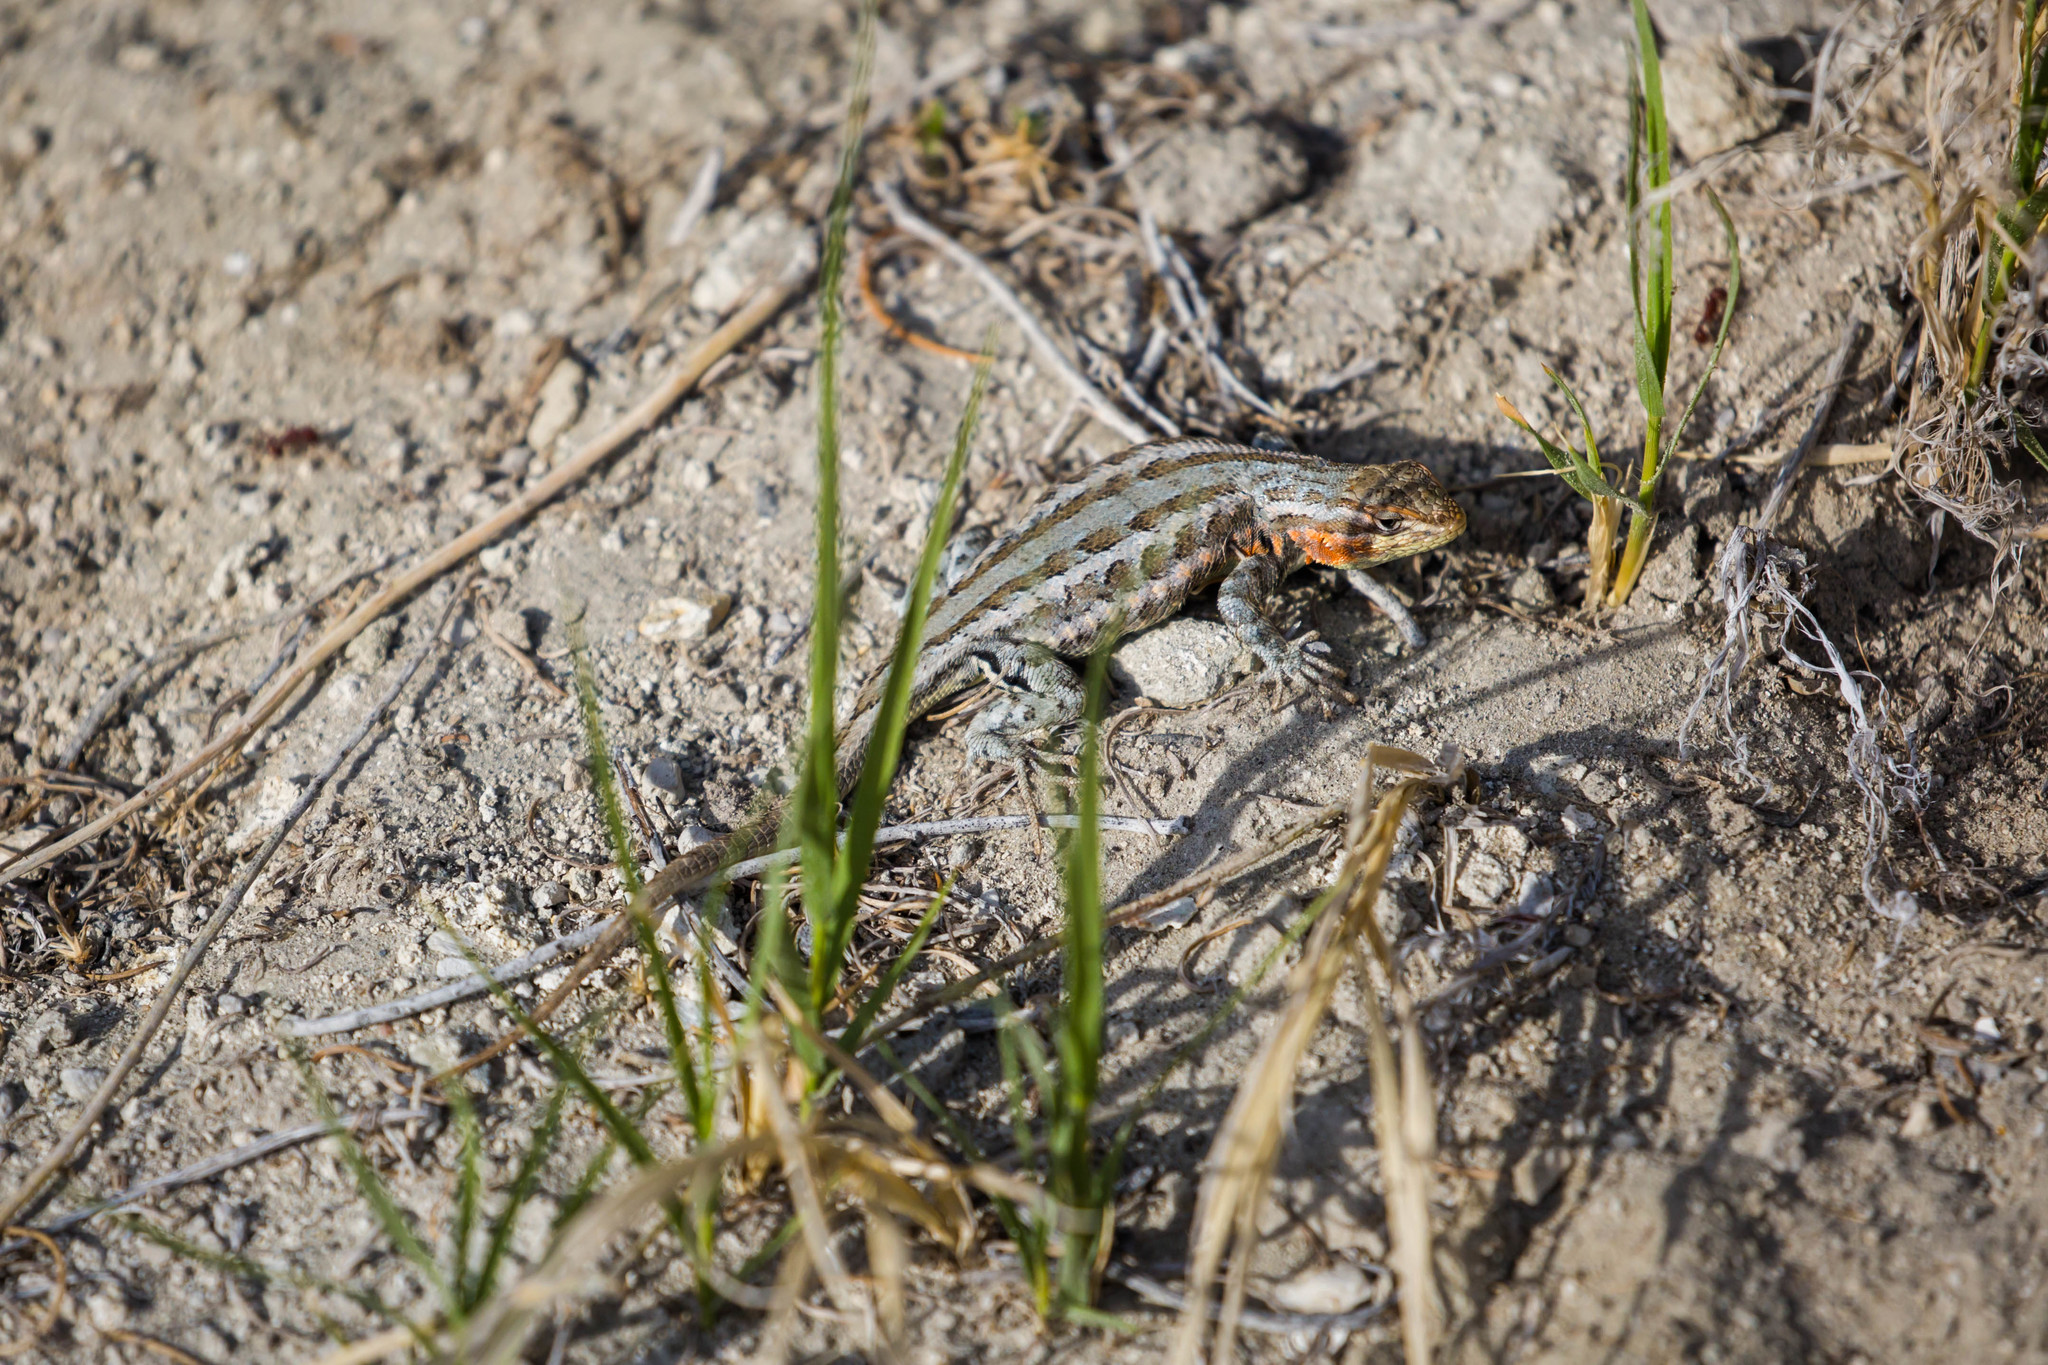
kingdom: Animalia
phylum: Chordata
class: Squamata
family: Phrynosomatidae
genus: Sceloporus
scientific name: Sceloporus graciosus
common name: Sagebrush lizard
